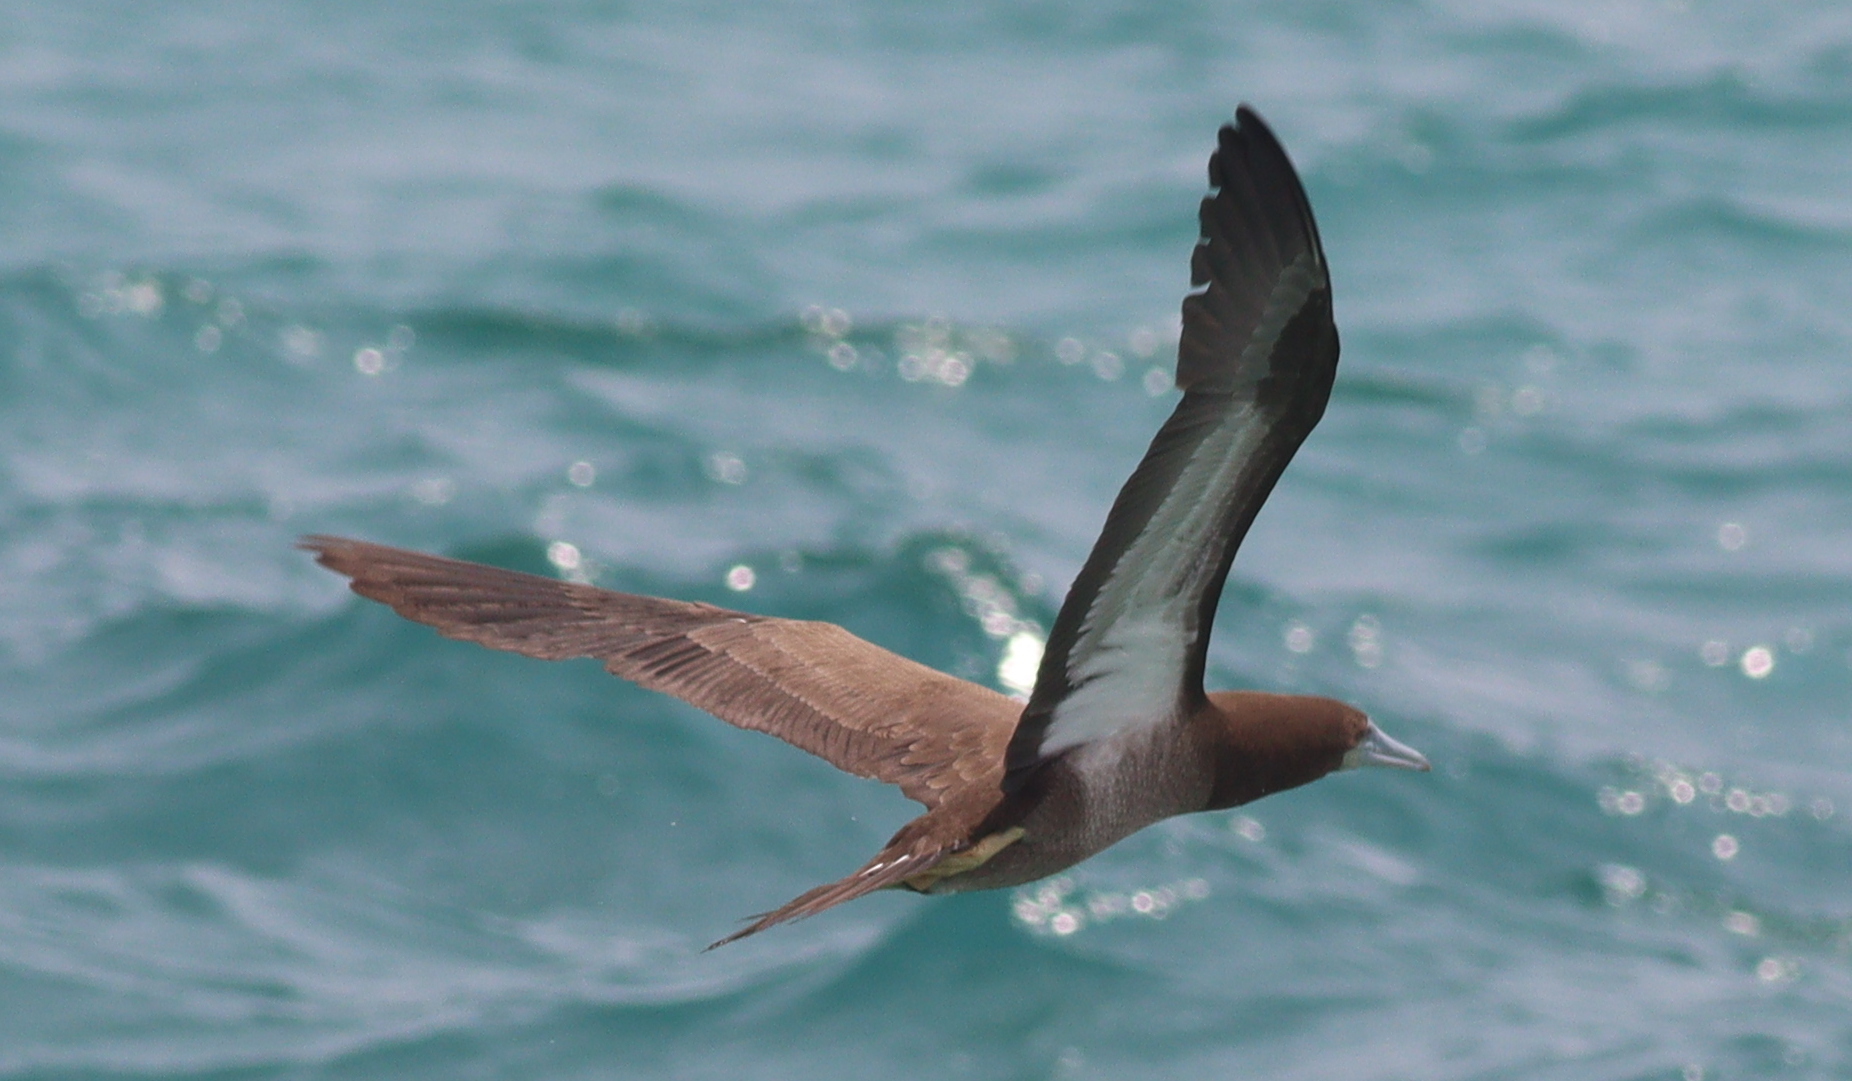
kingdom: Animalia
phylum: Chordata
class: Aves
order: Suliformes
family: Sulidae
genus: Sula
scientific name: Sula leucogaster
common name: Brown booby
